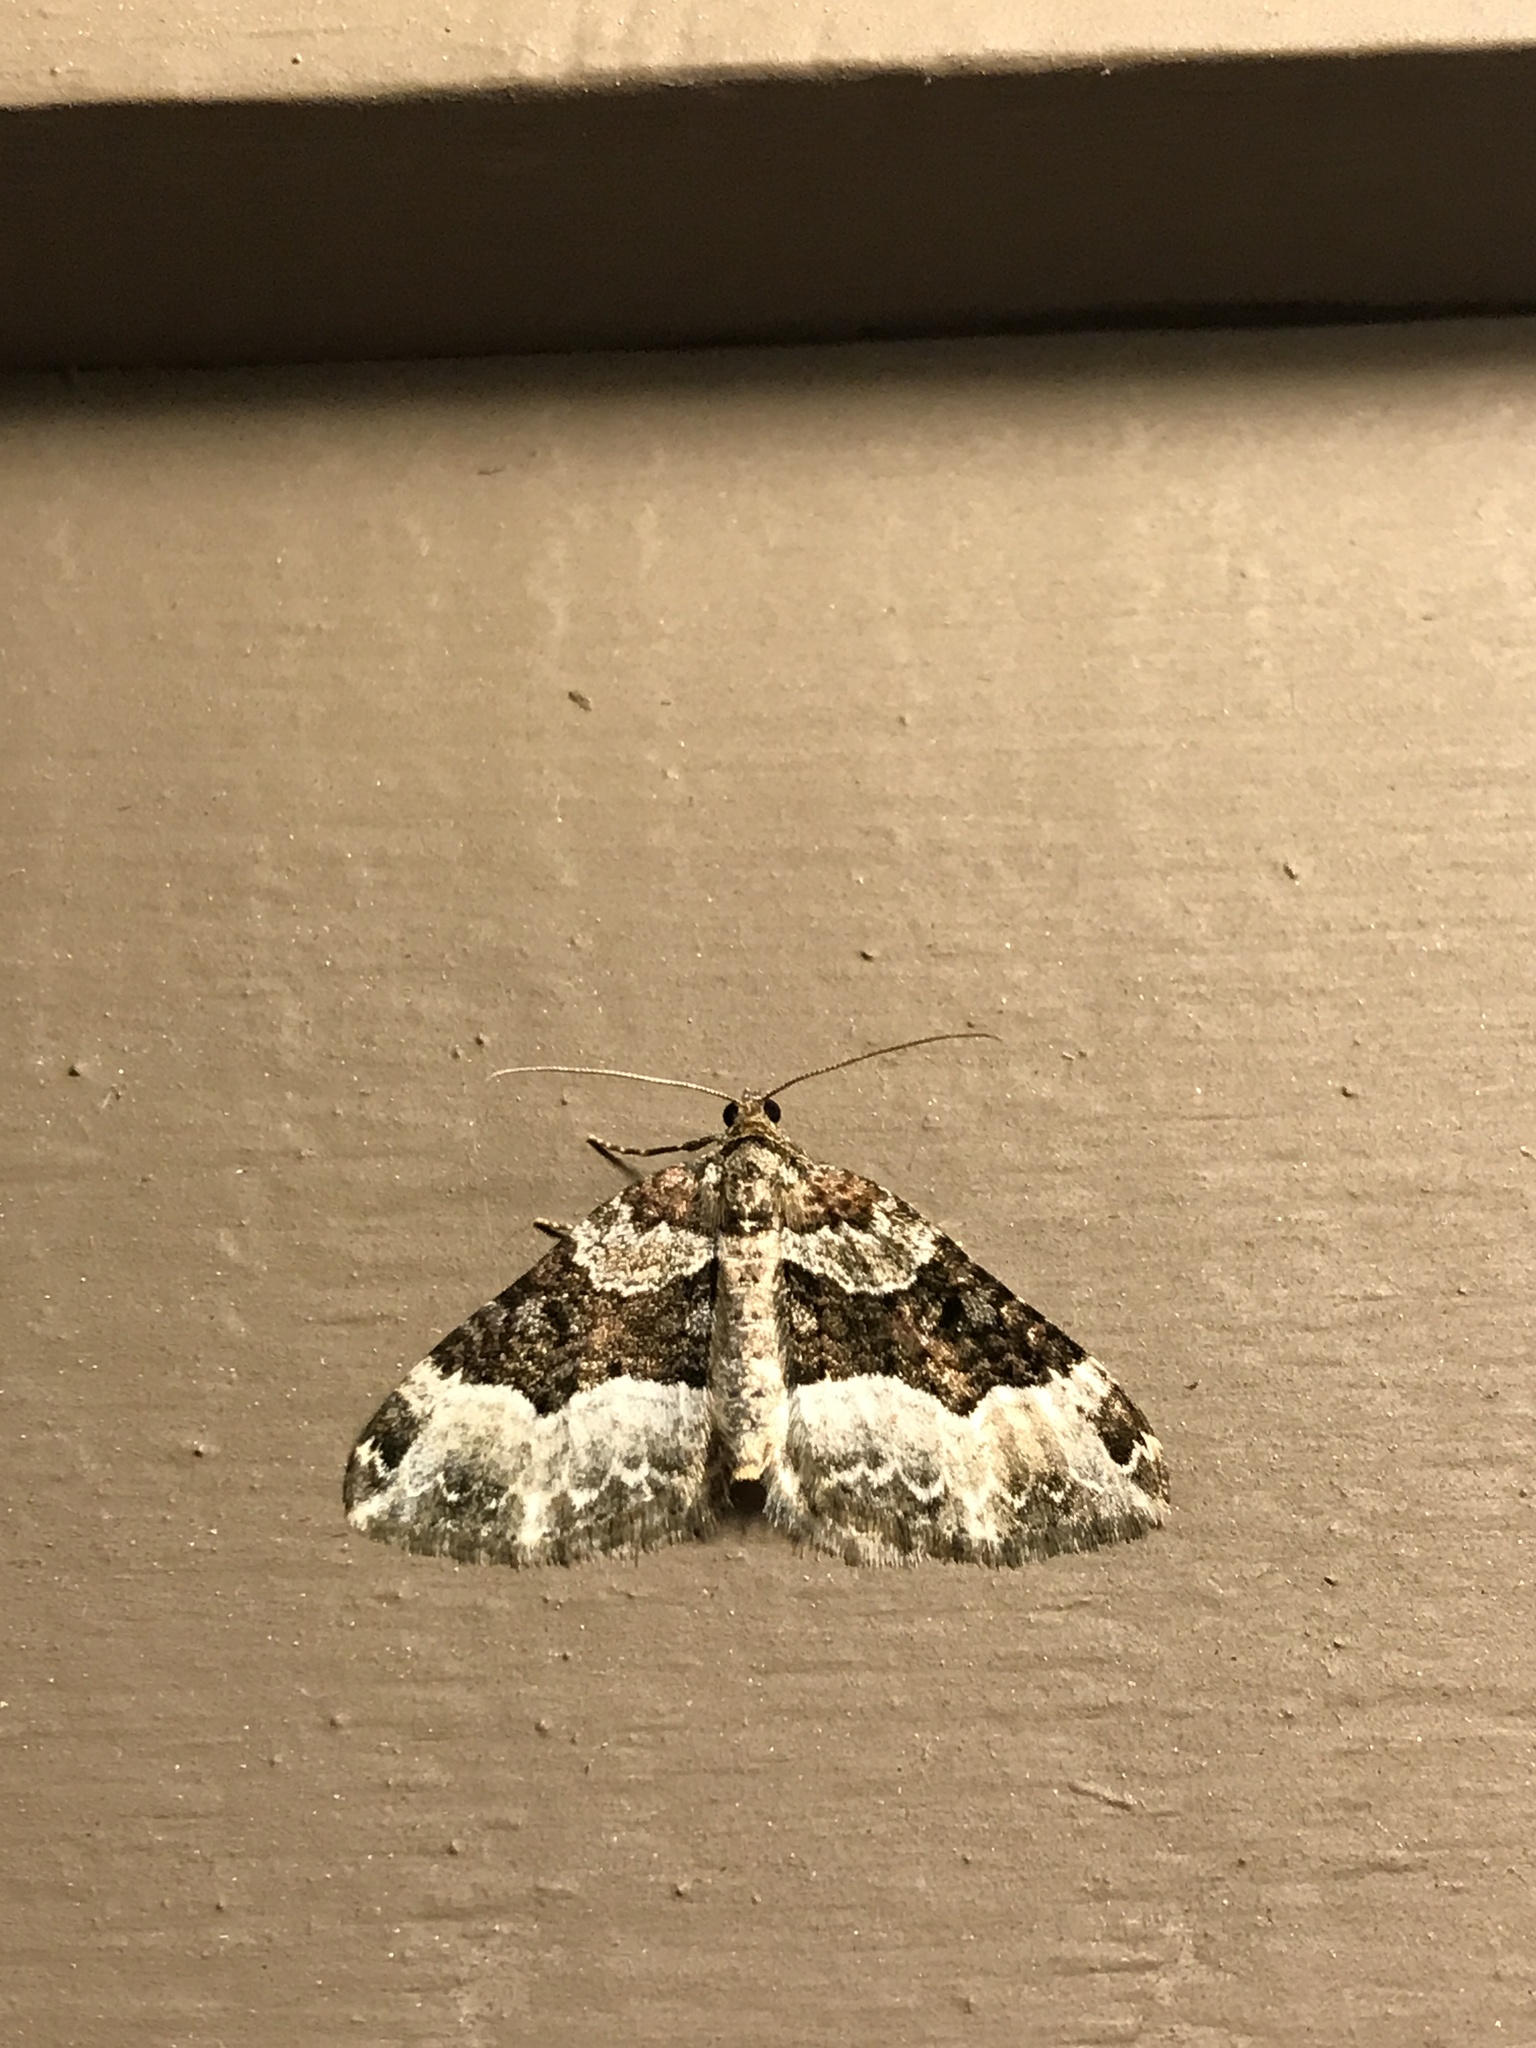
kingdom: Animalia
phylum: Arthropoda
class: Insecta
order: Lepidoptera
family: Geometridae
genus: Euphyia
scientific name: Euphyia intermediata
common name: Sharp-angled carpet
